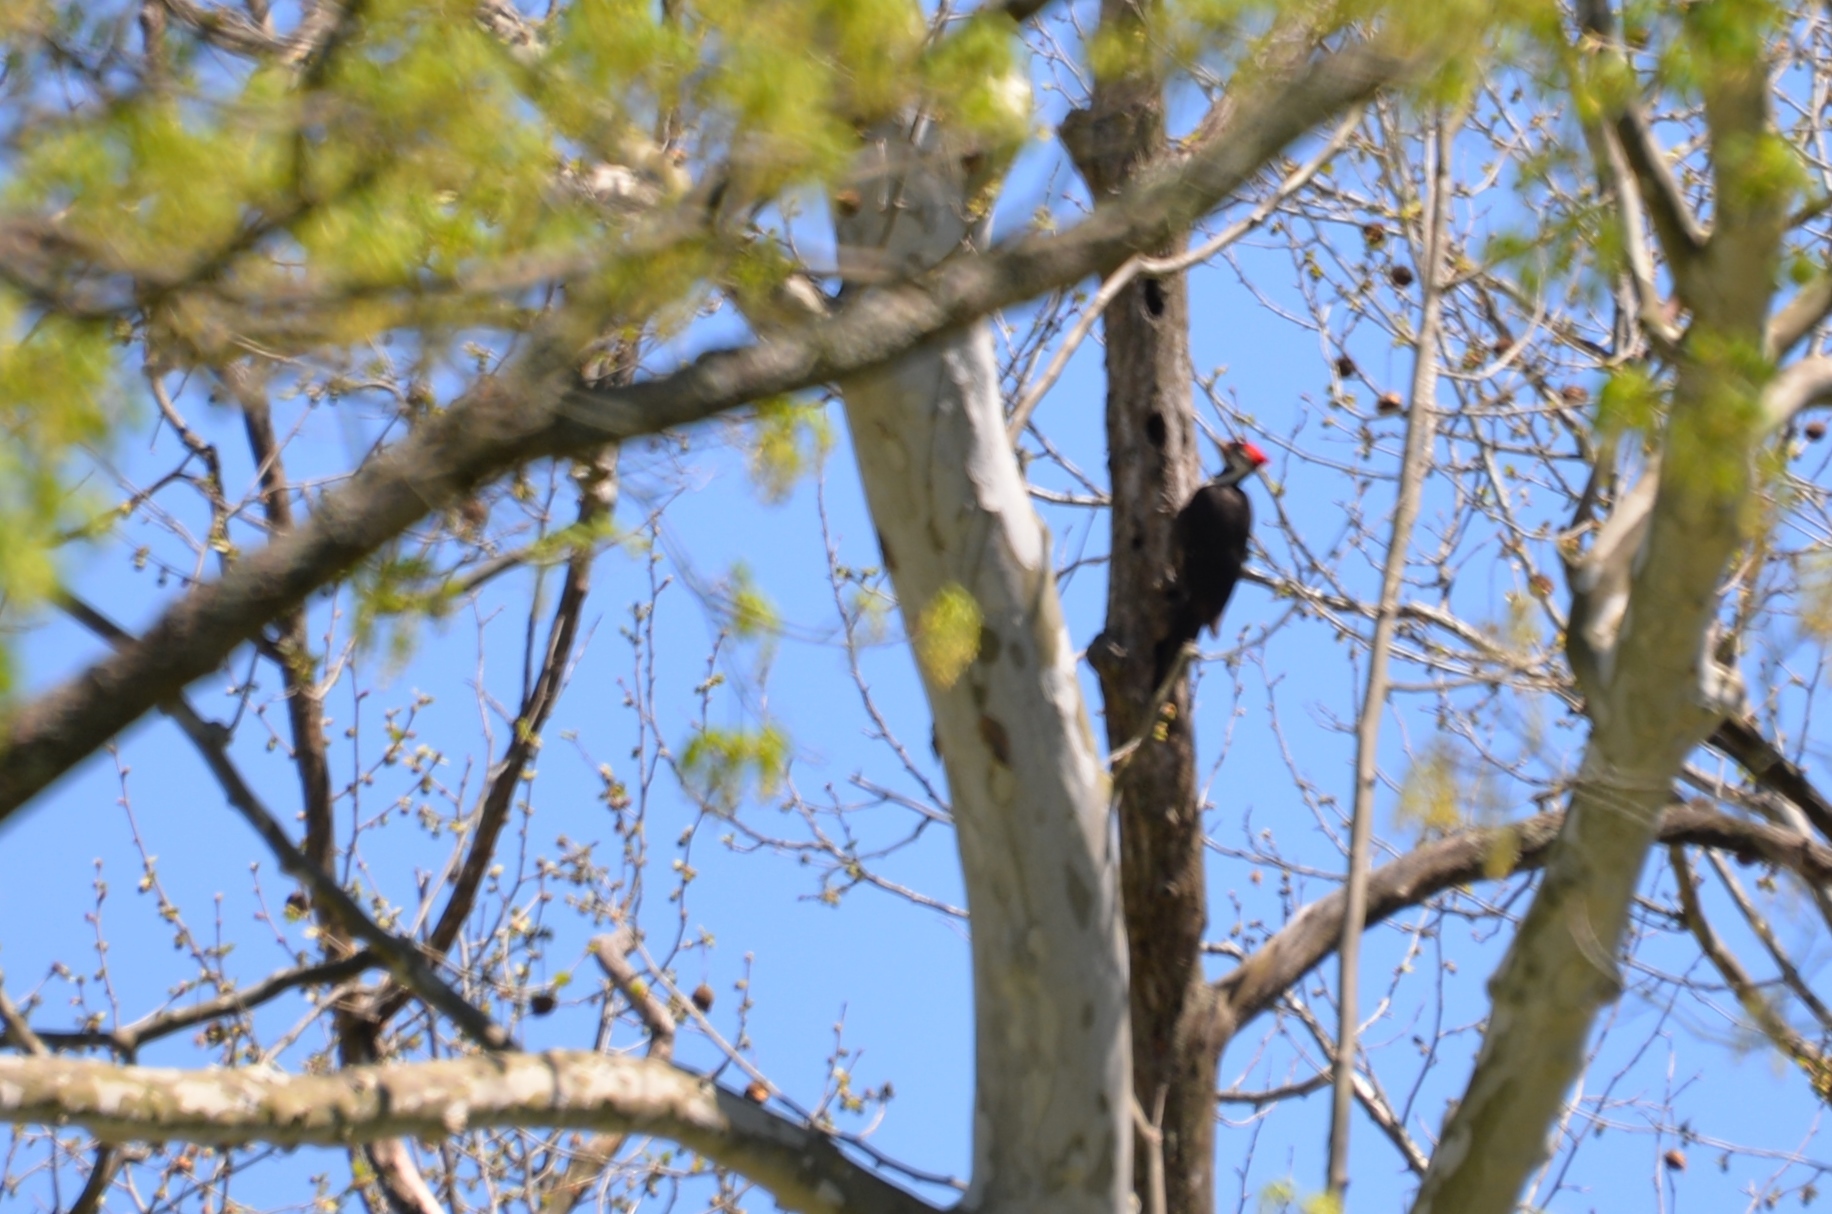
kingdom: Animalia
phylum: Chordata
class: Aves
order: Piciformes
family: Picidae
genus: Dryocopus
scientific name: Dryocopus pileatus
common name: Pileated woodpecker
